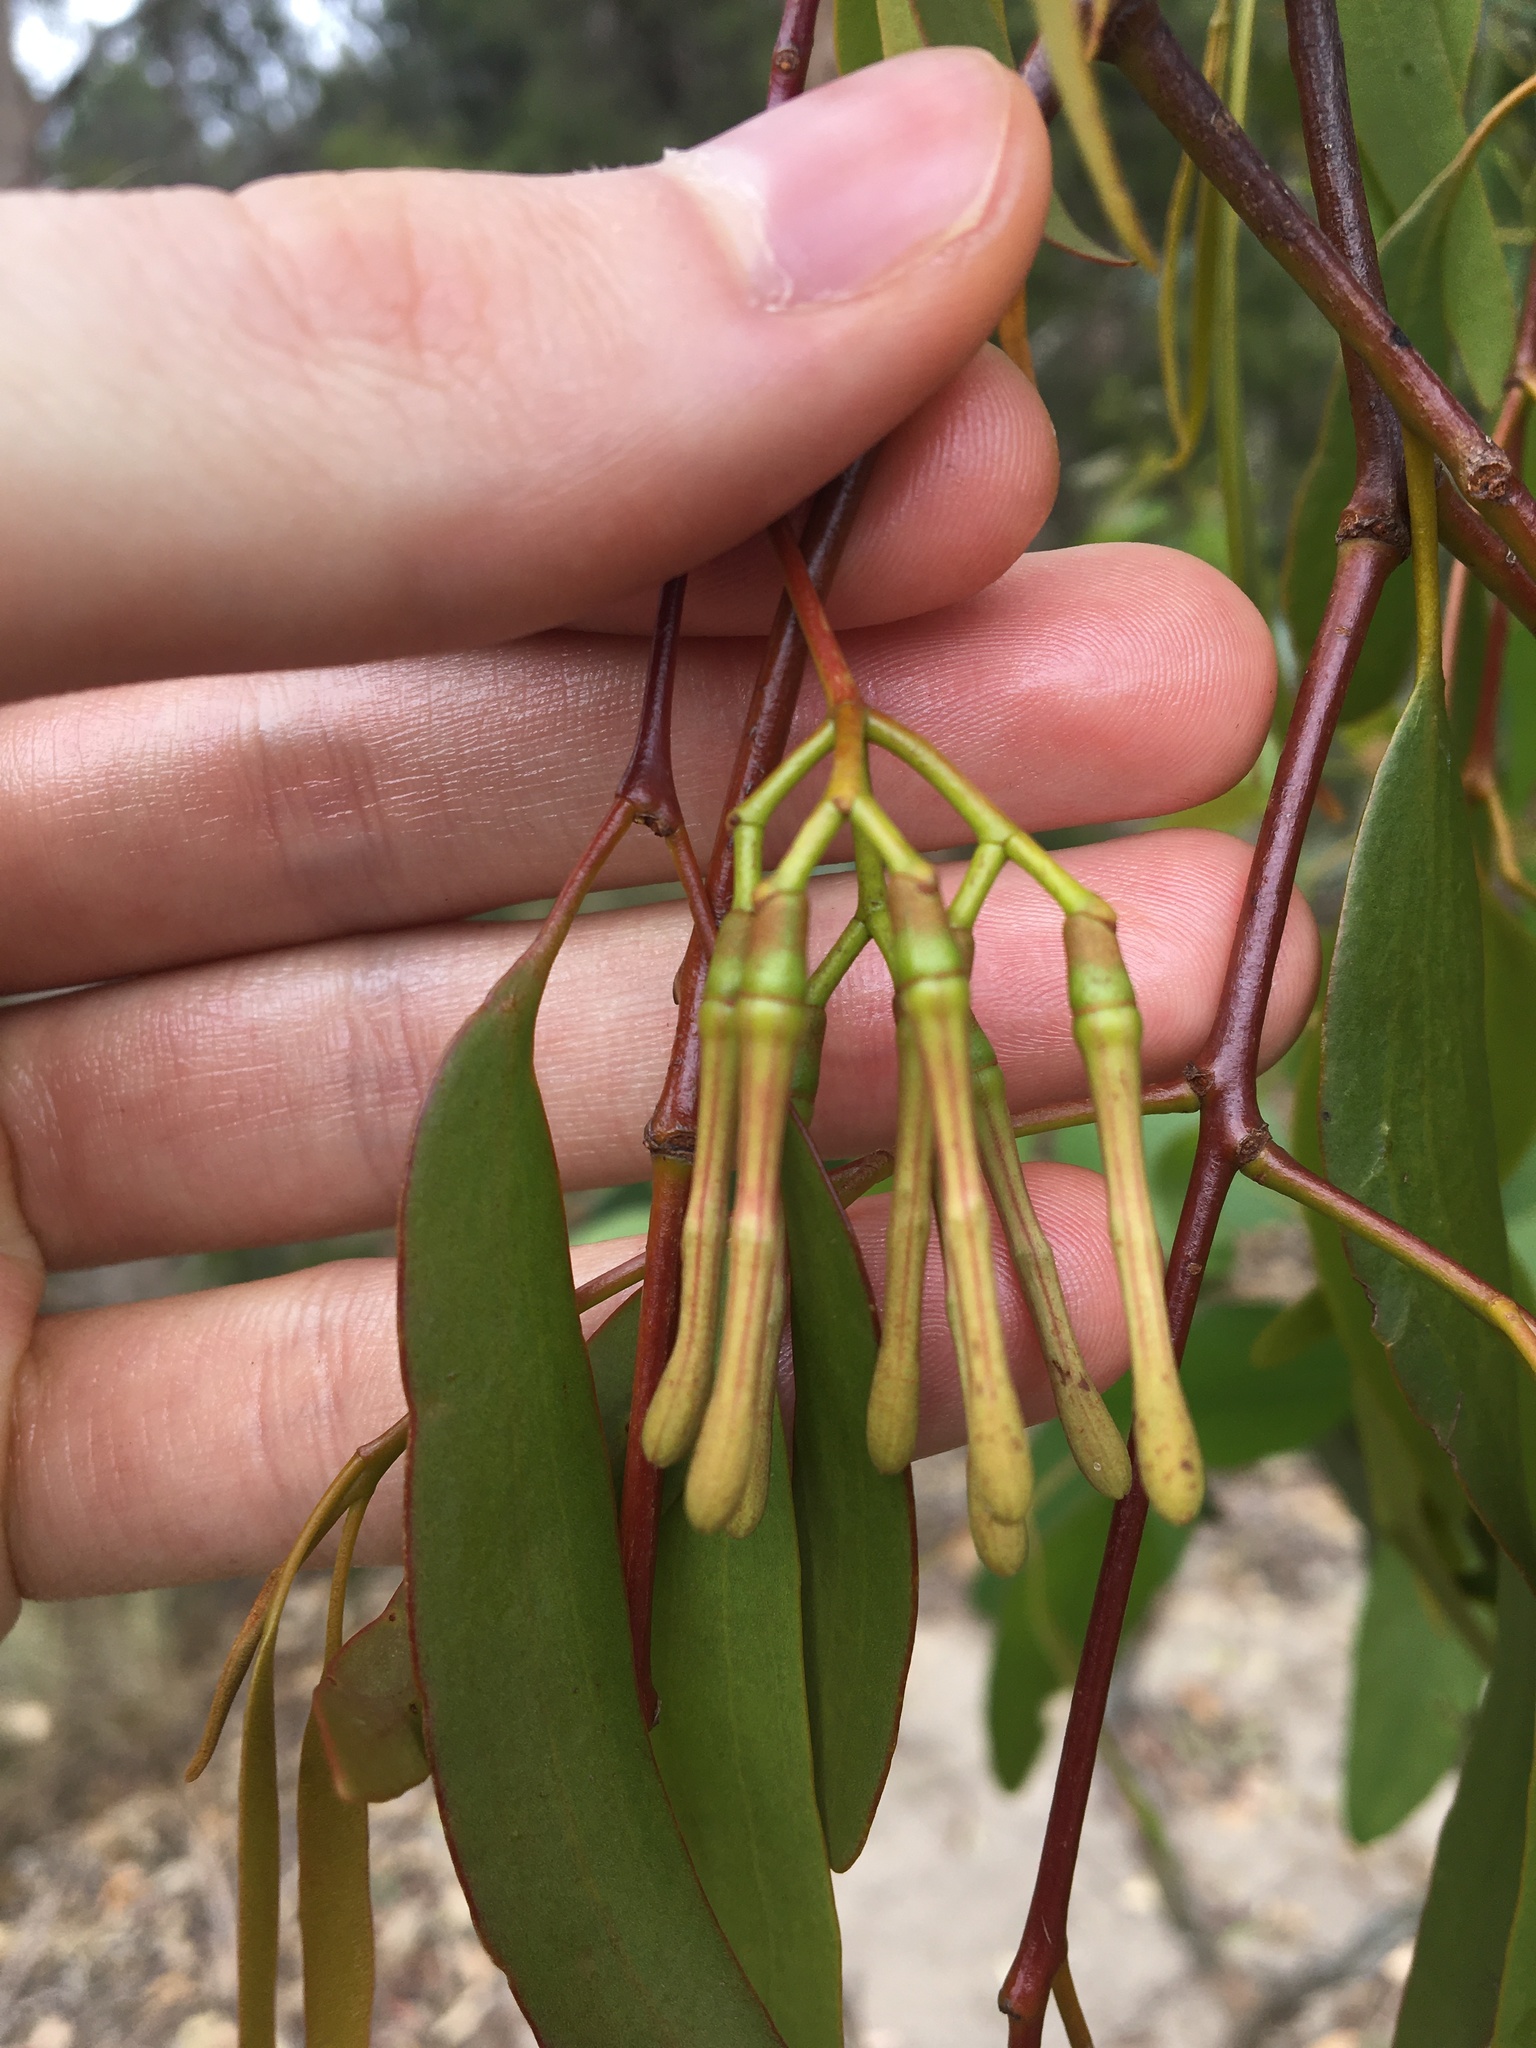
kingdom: Plantae
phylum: Tracheophyta
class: Magnoliopsida
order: Santalales
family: Loranthaceae
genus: Amyema
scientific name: Amyema miquelii
